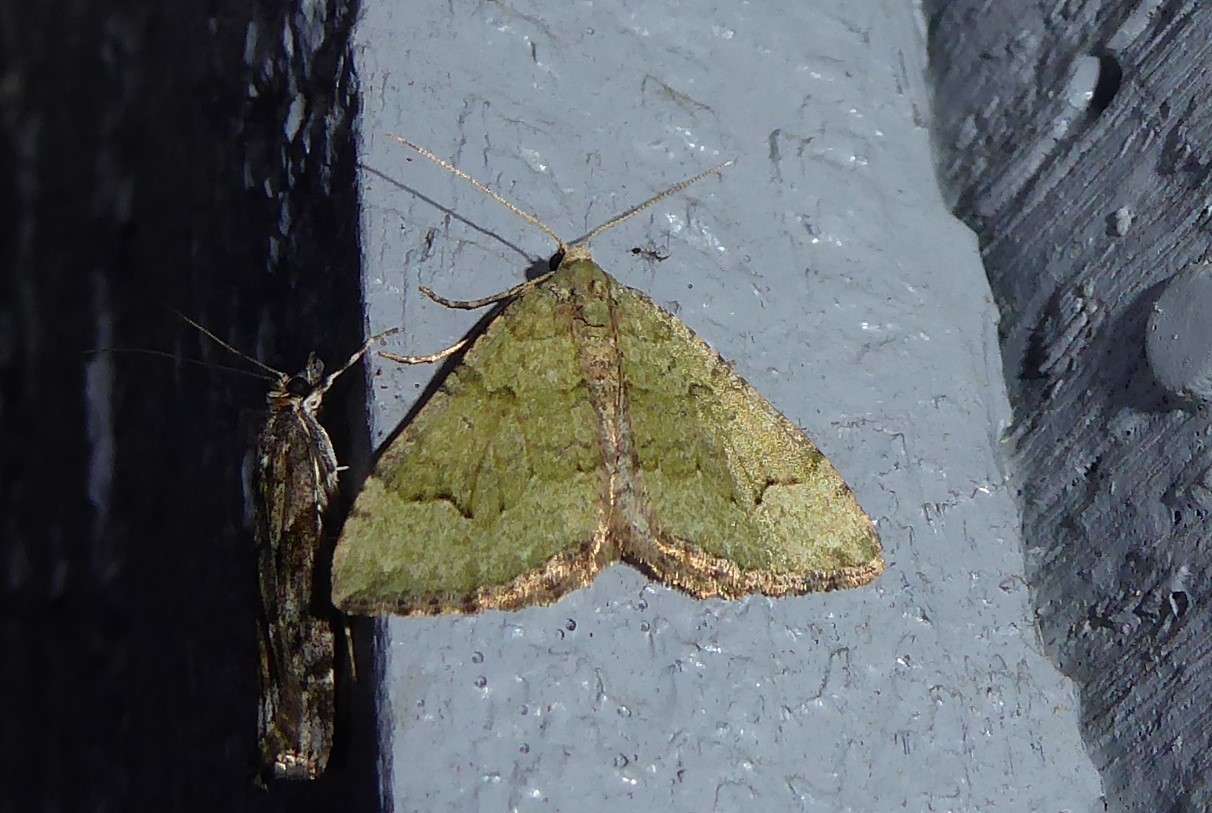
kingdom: Animalia
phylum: Arthropoda
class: Insecta
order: Lepidoptera
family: Geometridae
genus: Epyaxa
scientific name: Epyaxa rosearia
